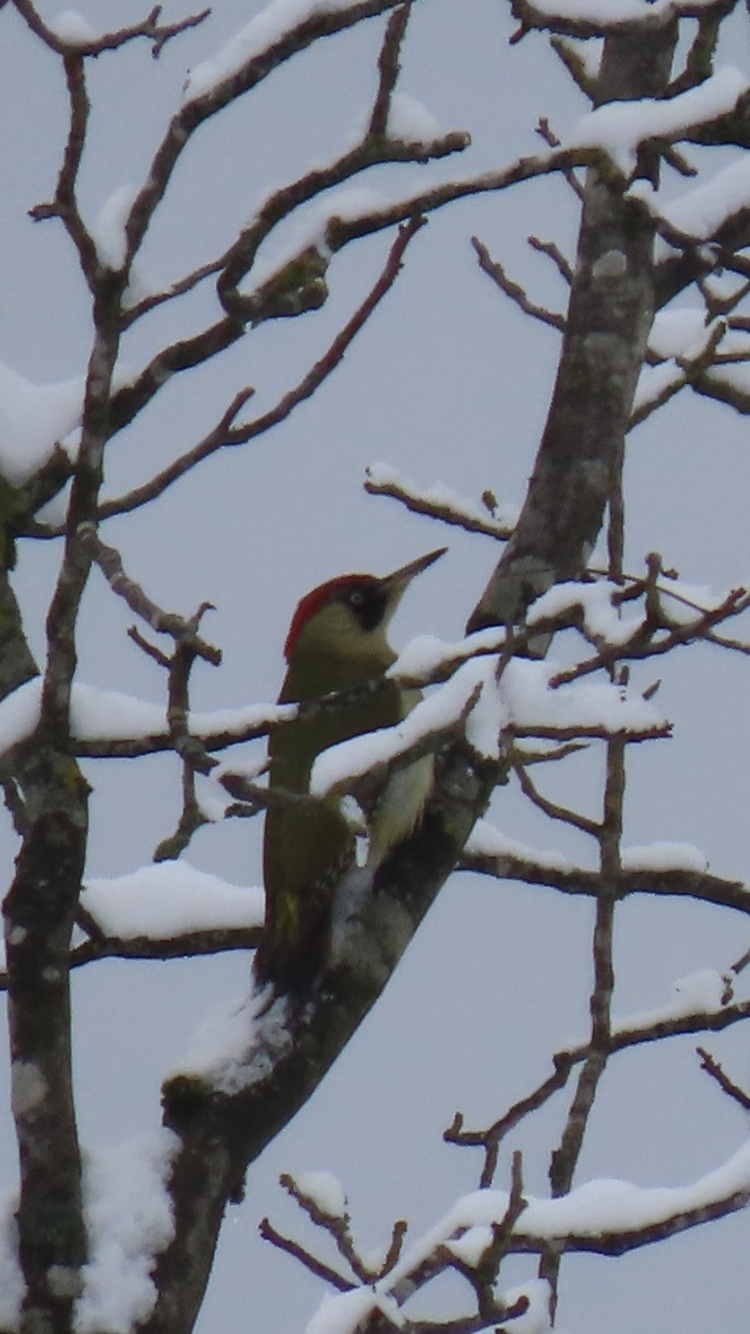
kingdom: Animalia
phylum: Chordata
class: Aves
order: Piciformes
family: Picidae
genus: Picus
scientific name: Picus viridis
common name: European green woodpecker
